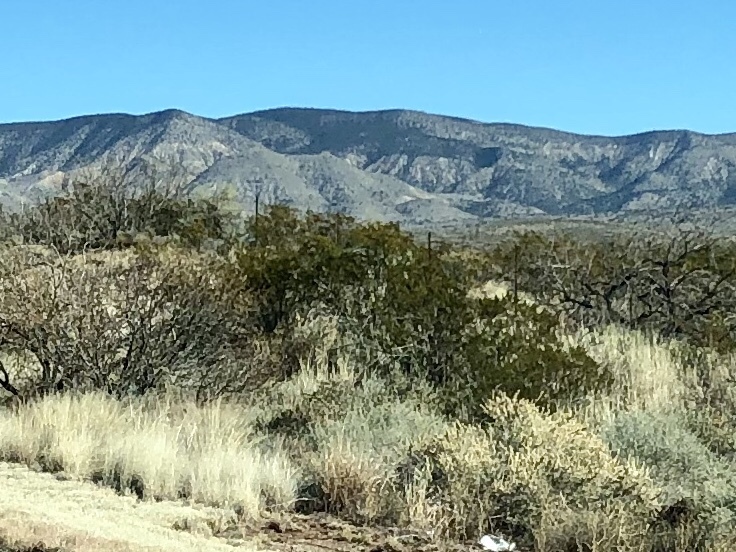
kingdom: Plantae
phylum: Tracheophyta
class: Magnoliopsida
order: Zygophyllales
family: Zygophyllaceae
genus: Larrea
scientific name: Larrea tridentata
